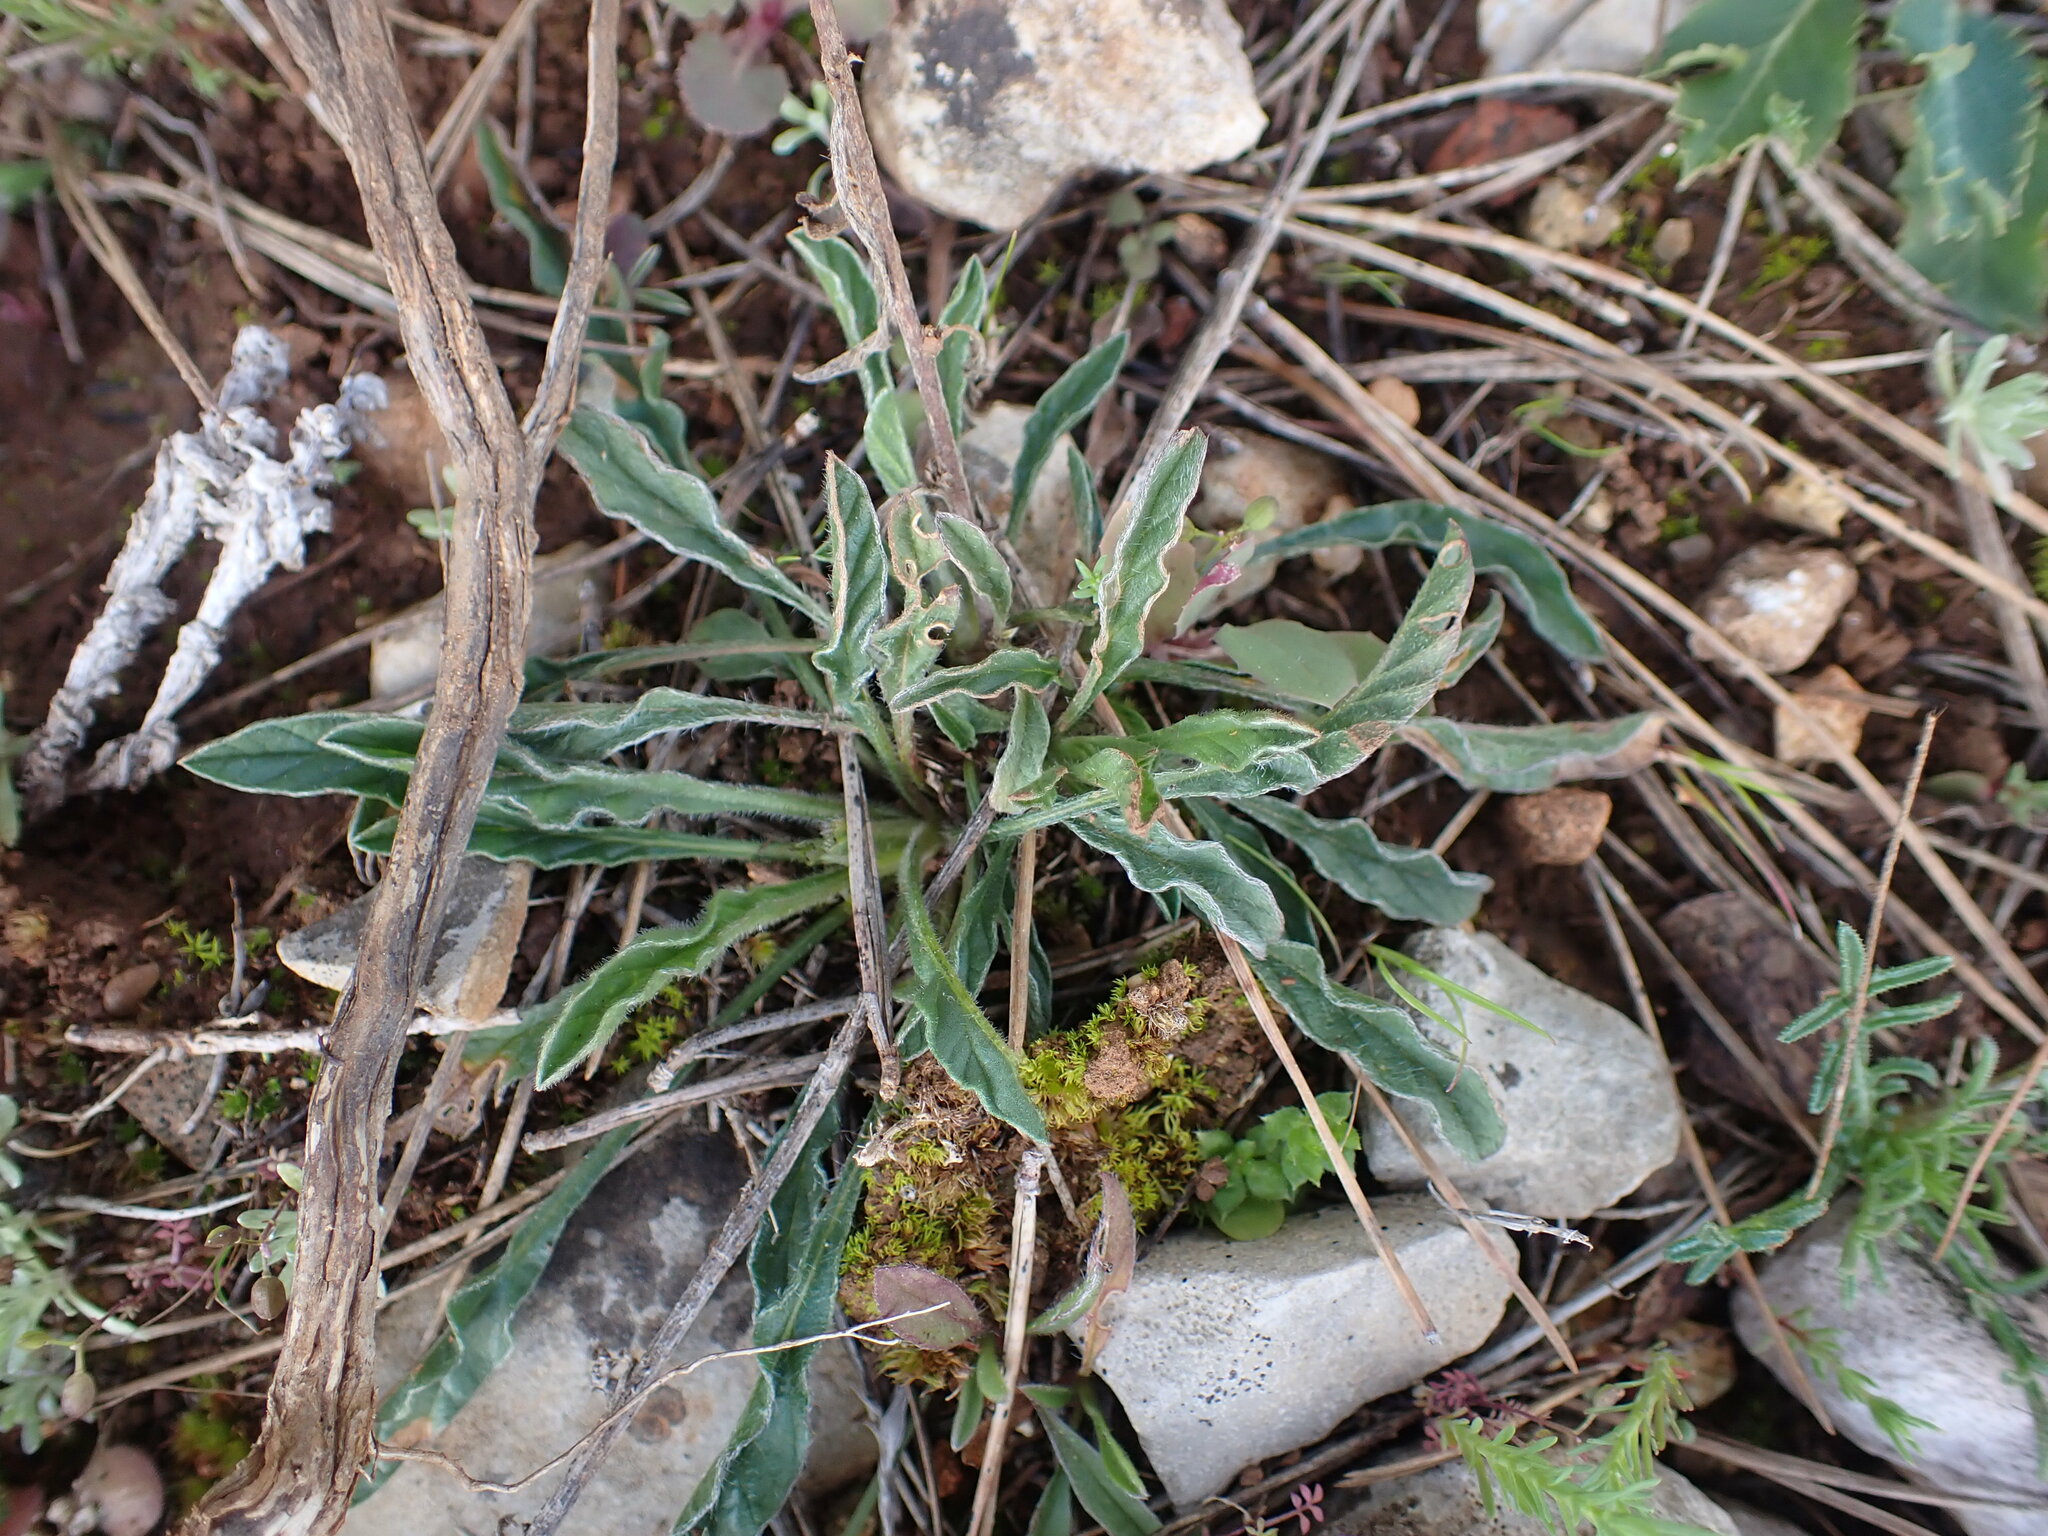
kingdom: Plantae
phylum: Tracheophyta
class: Magnoliopsida
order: Solanales
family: Convolvulaceae
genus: Convolvulus
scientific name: Convolvulus cantabrica
